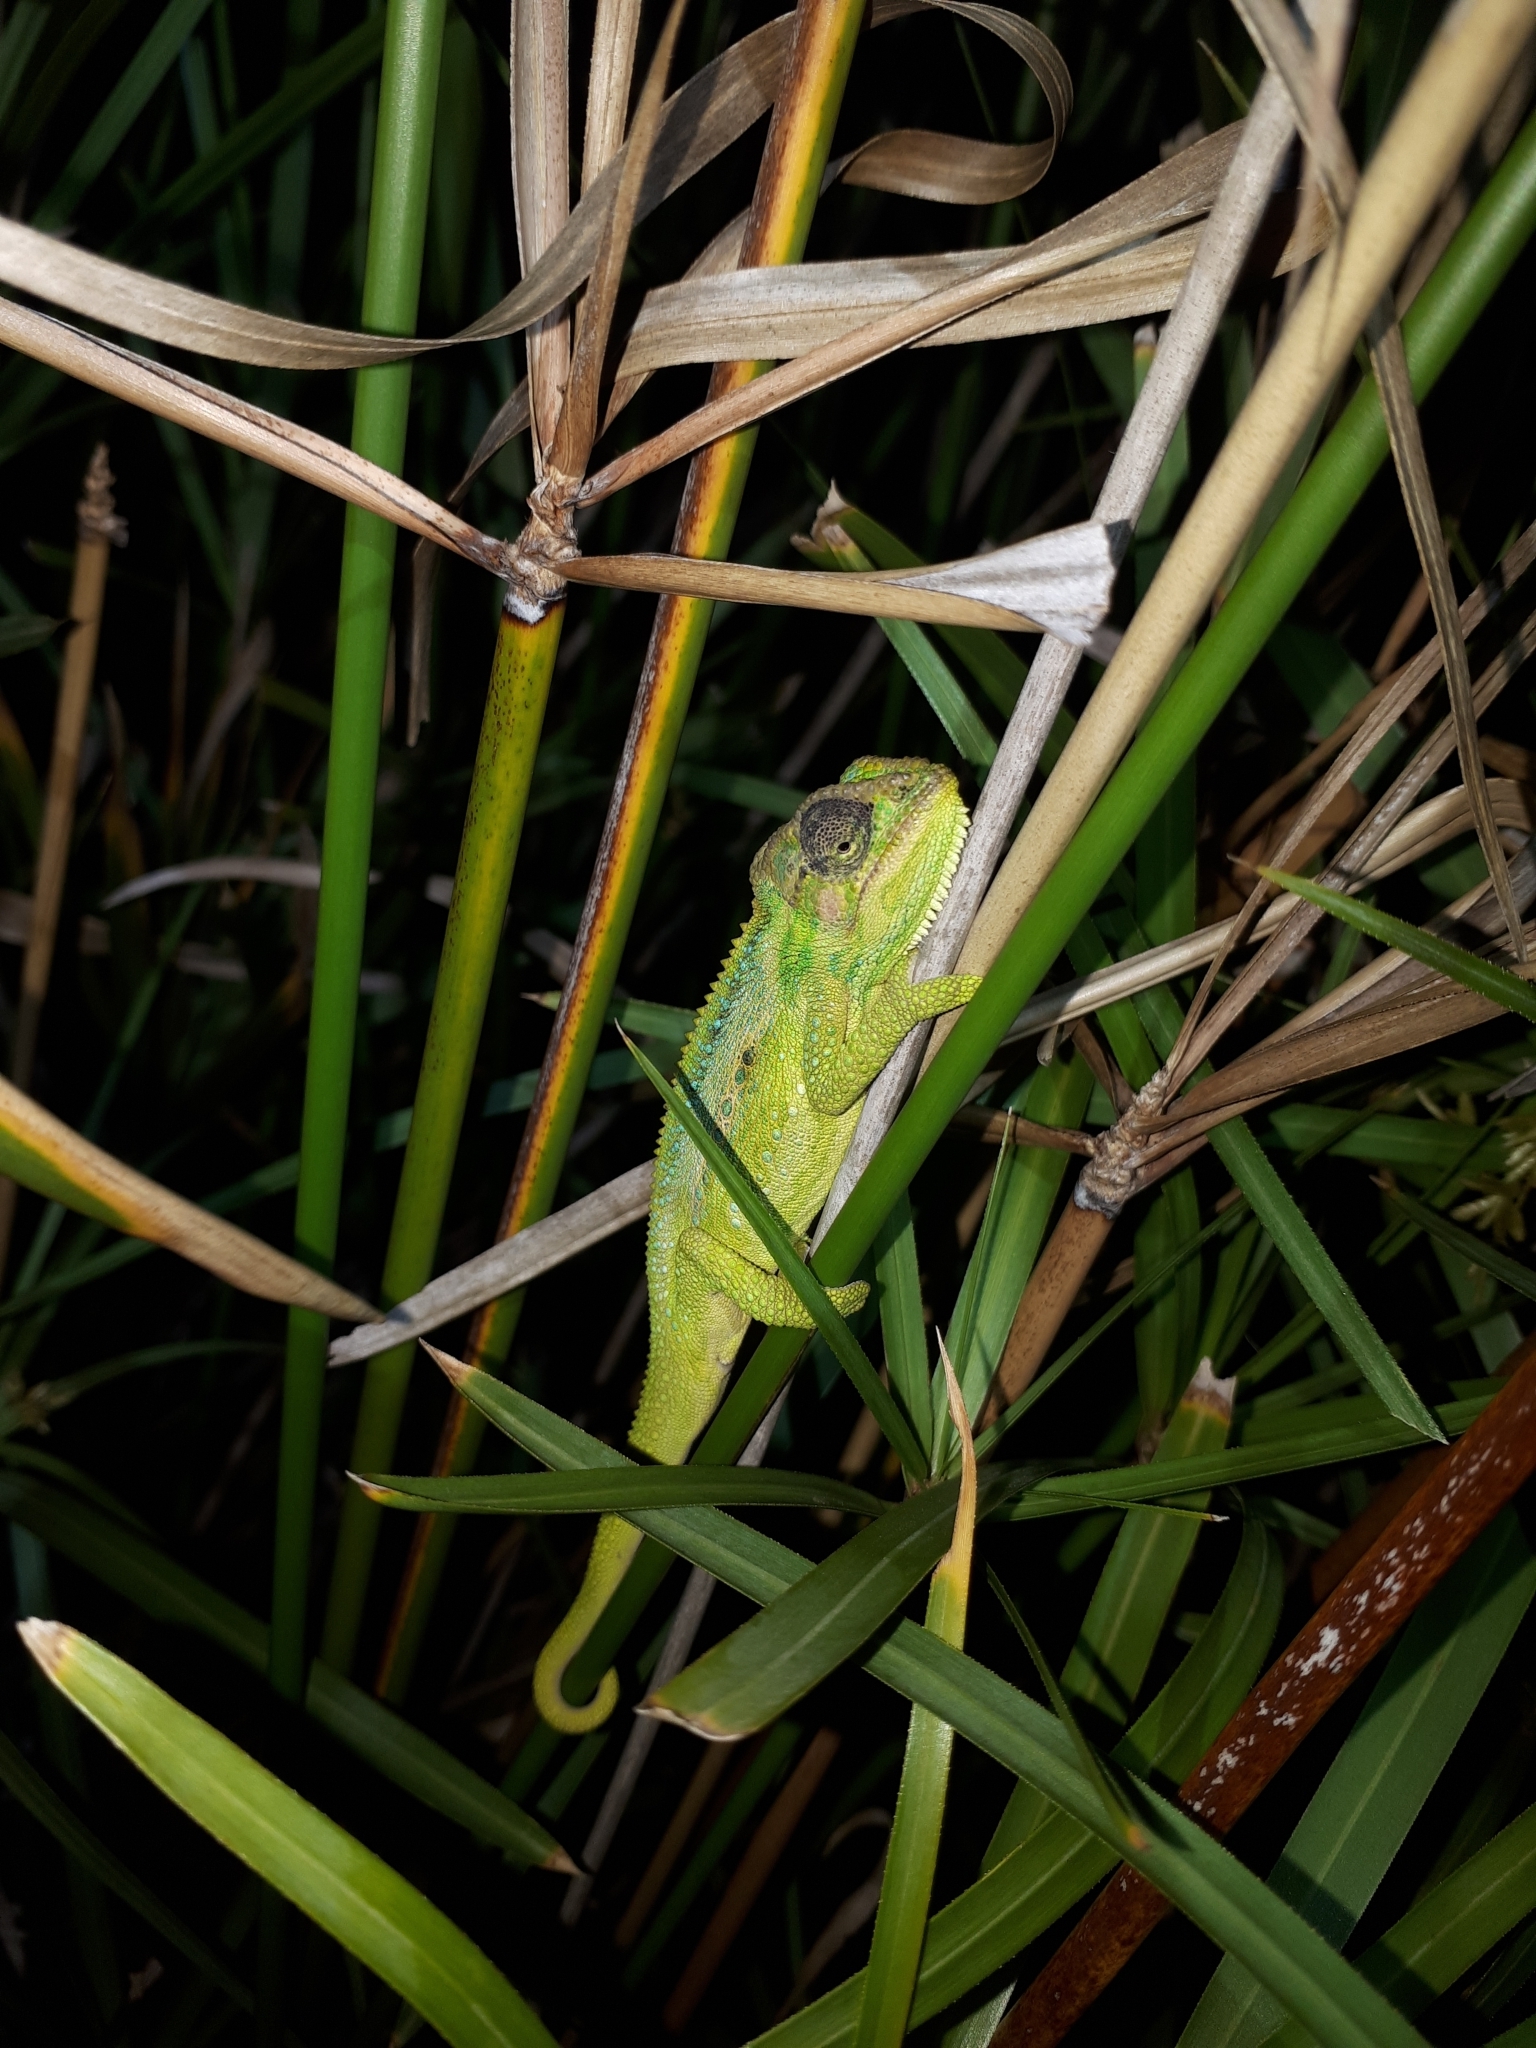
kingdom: Animalia
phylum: Chordata
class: Squamata
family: Chamaeleonidae
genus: Bradypodion
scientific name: Bradypodion pumilum
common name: Cape dwarf chameleon
